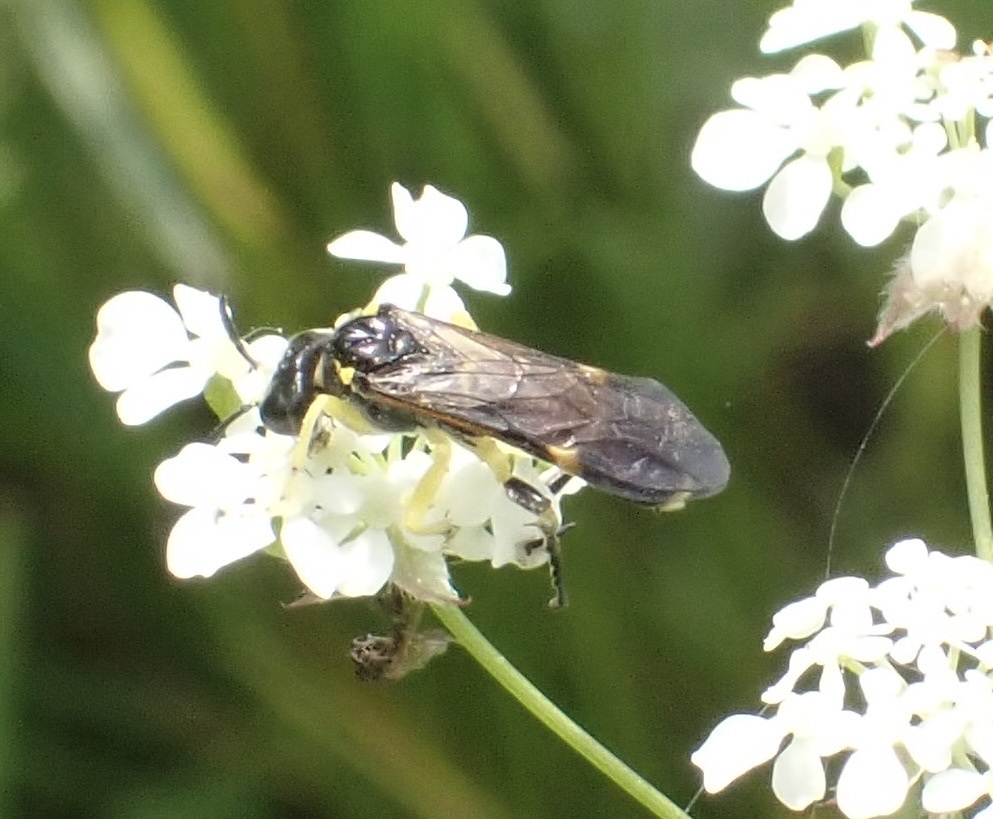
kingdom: Animalia
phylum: Arthropoda
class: Insecta
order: Hymenoptera
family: Tenthredinidae
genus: Tenthredo
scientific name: Tenthredo zonula
